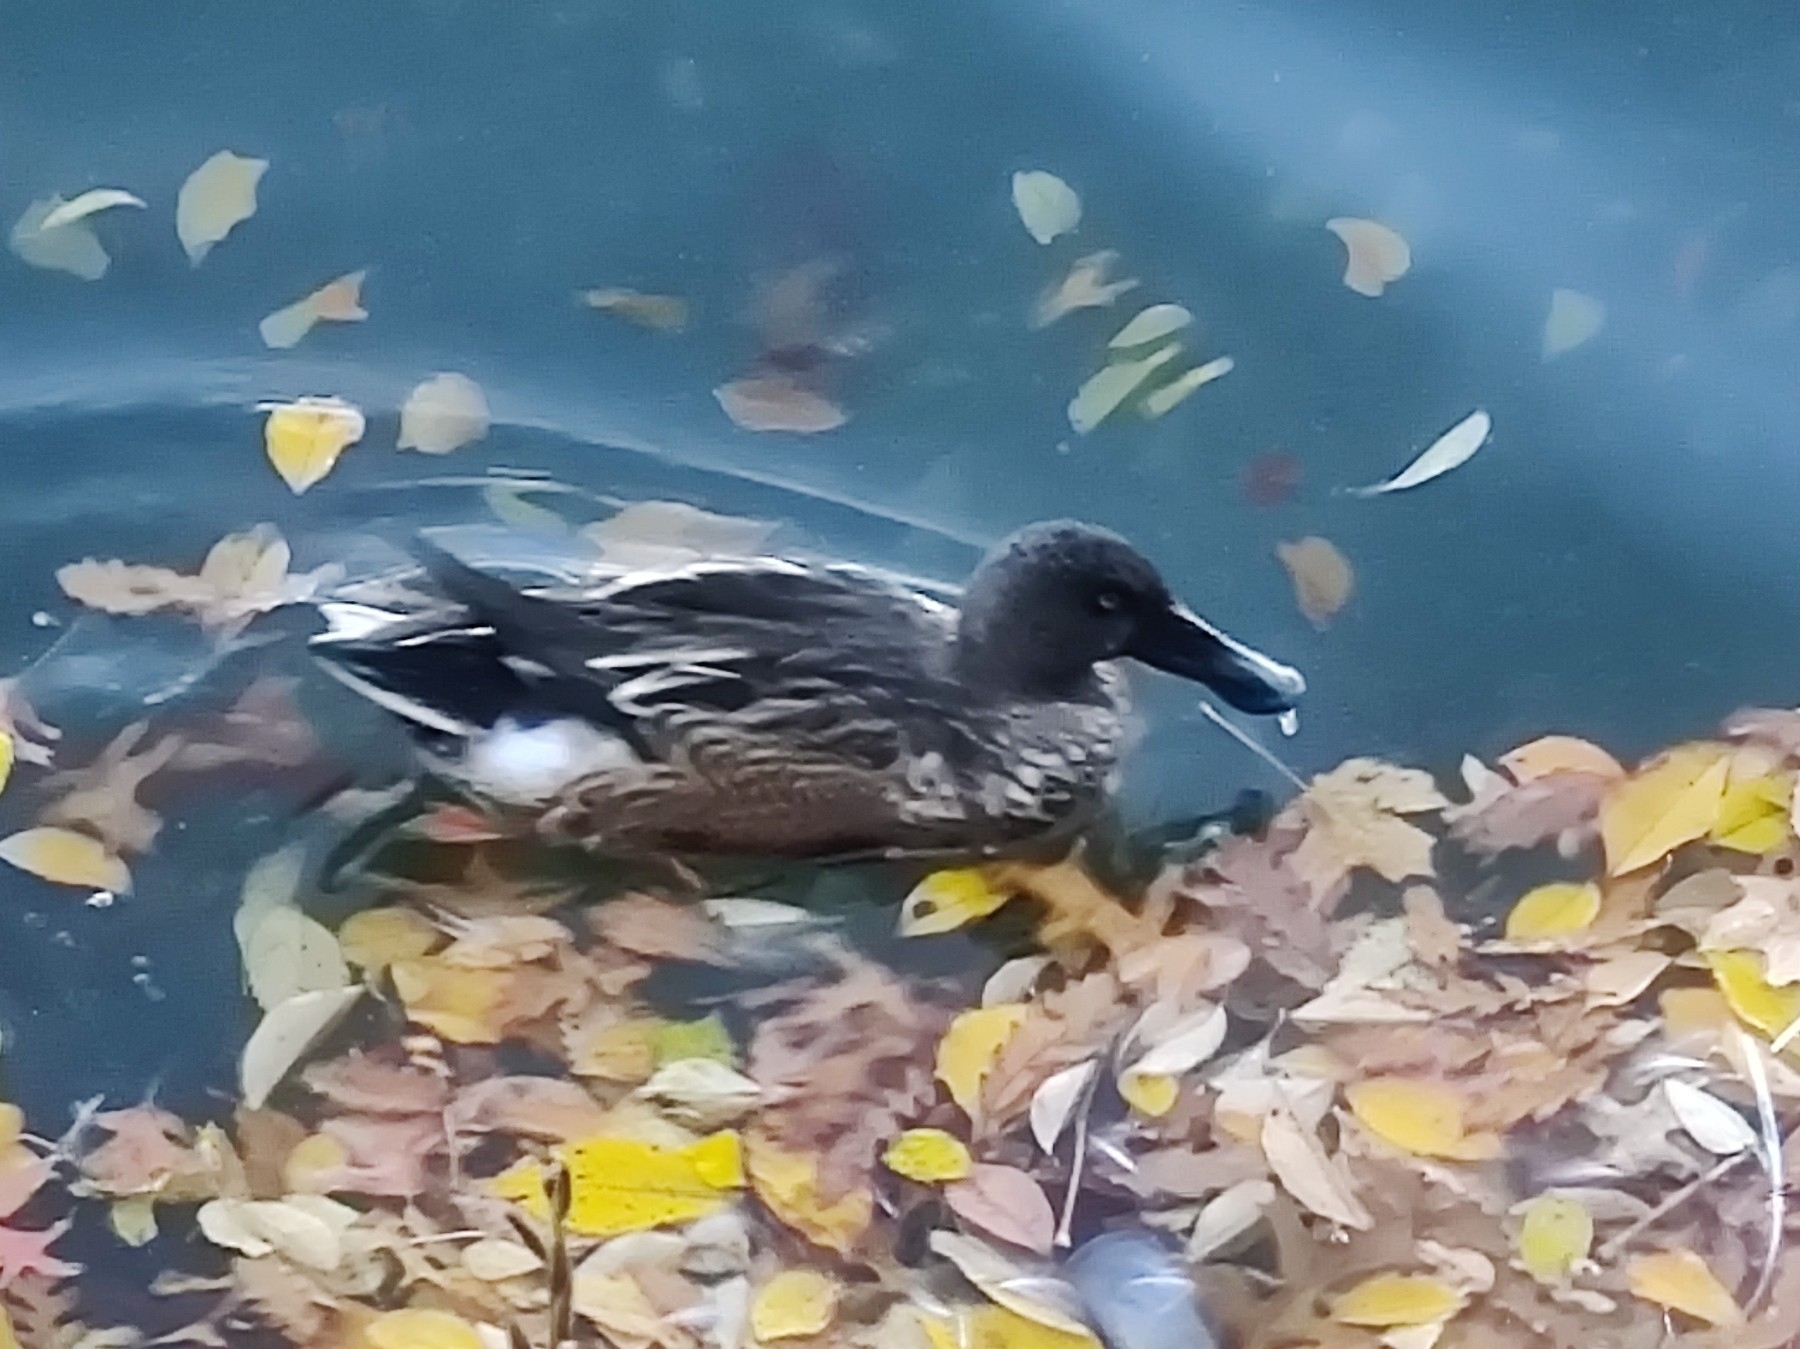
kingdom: Animalia
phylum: Chordata
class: Aves
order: Anseriformes
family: Anatidae
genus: Spatula
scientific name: Spatula clypeata
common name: Northern shoveler
